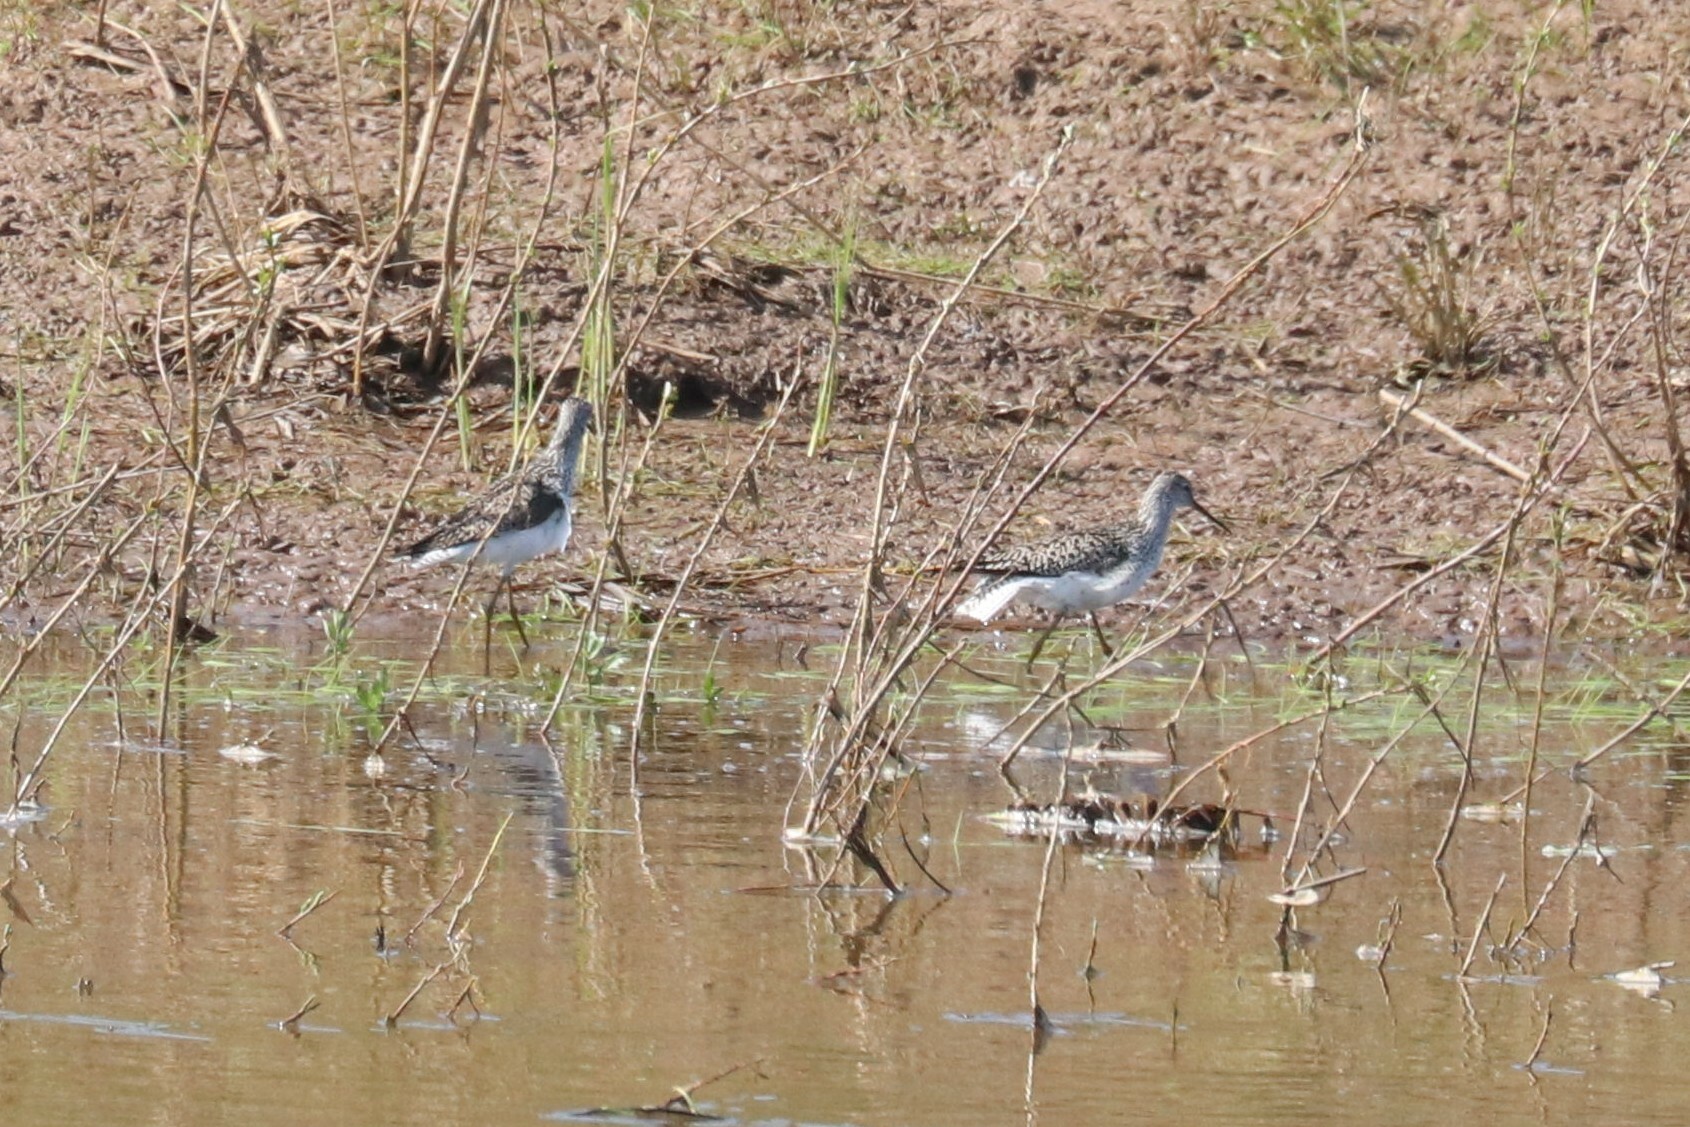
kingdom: Animalia
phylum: Chordata
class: Aves
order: Charadriiformes
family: Scolopacidae
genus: Tringa
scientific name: Tringa stagnatilis
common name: Marsh sandpiper
